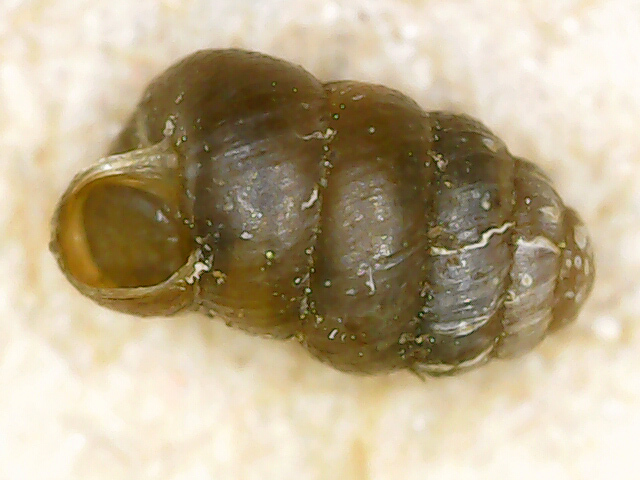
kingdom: Animalia
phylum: Mollusca
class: Gastropoda
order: Stylommatophora
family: Truncatellinidae
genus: Columella
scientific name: Columella edentula
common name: Toothless chrysalis snail
